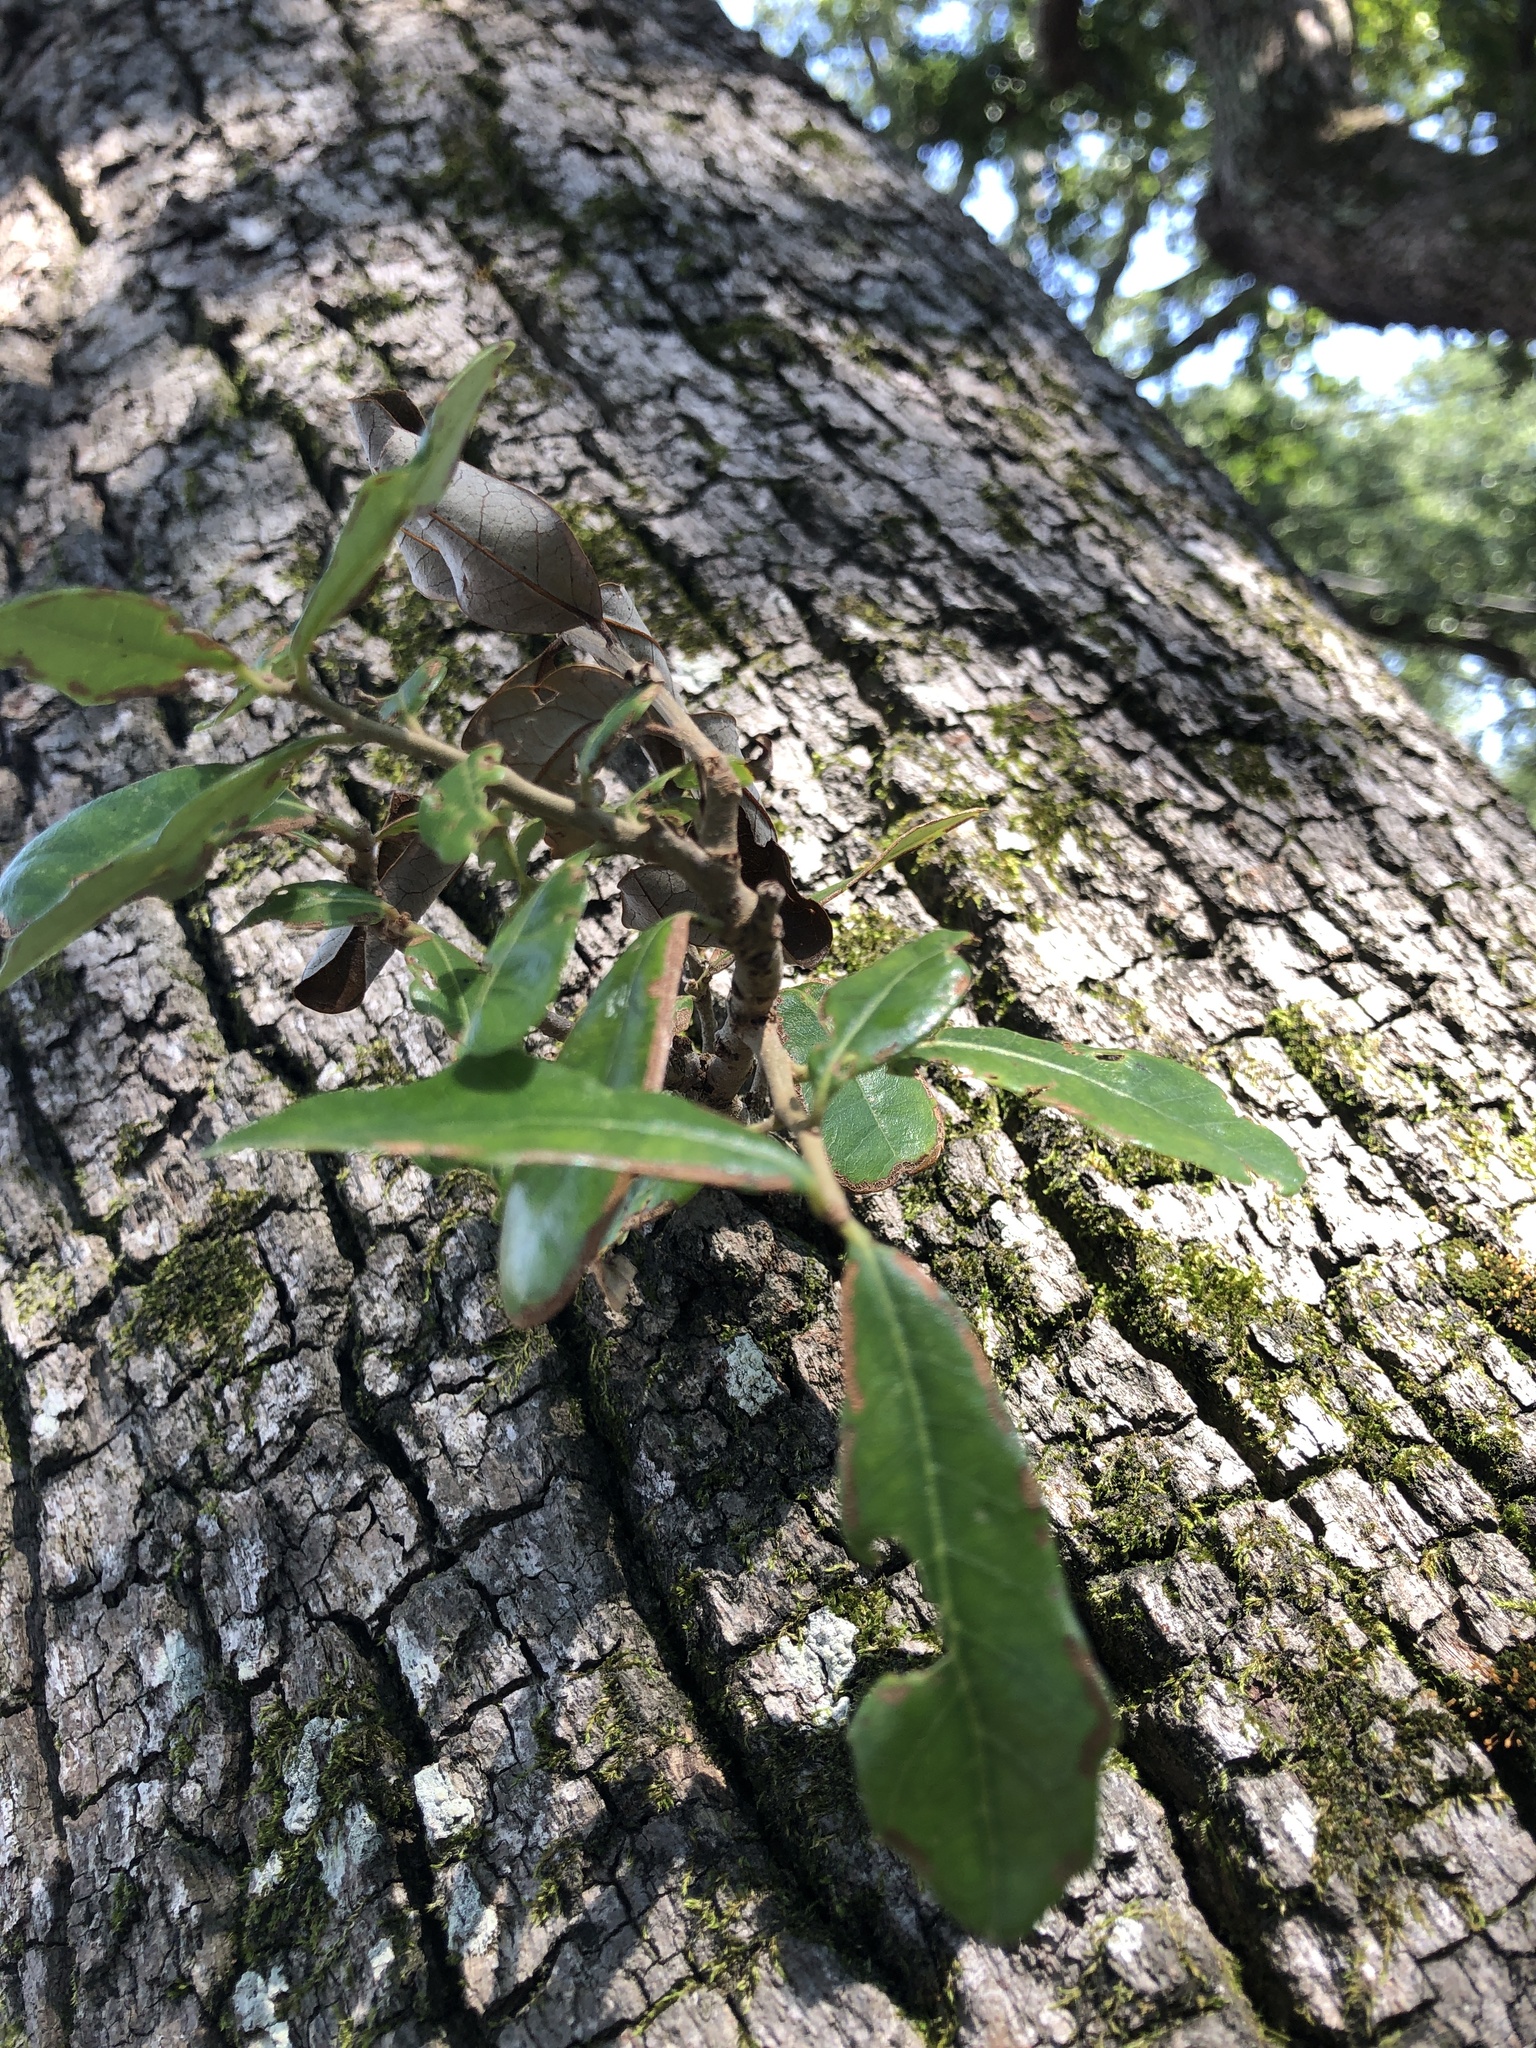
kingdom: Plantae
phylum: Tracheophyta
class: Magnoliopsida
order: Fagales
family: Fagaceae
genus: Quercus
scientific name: Quercus virginiana
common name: Southern live oak
